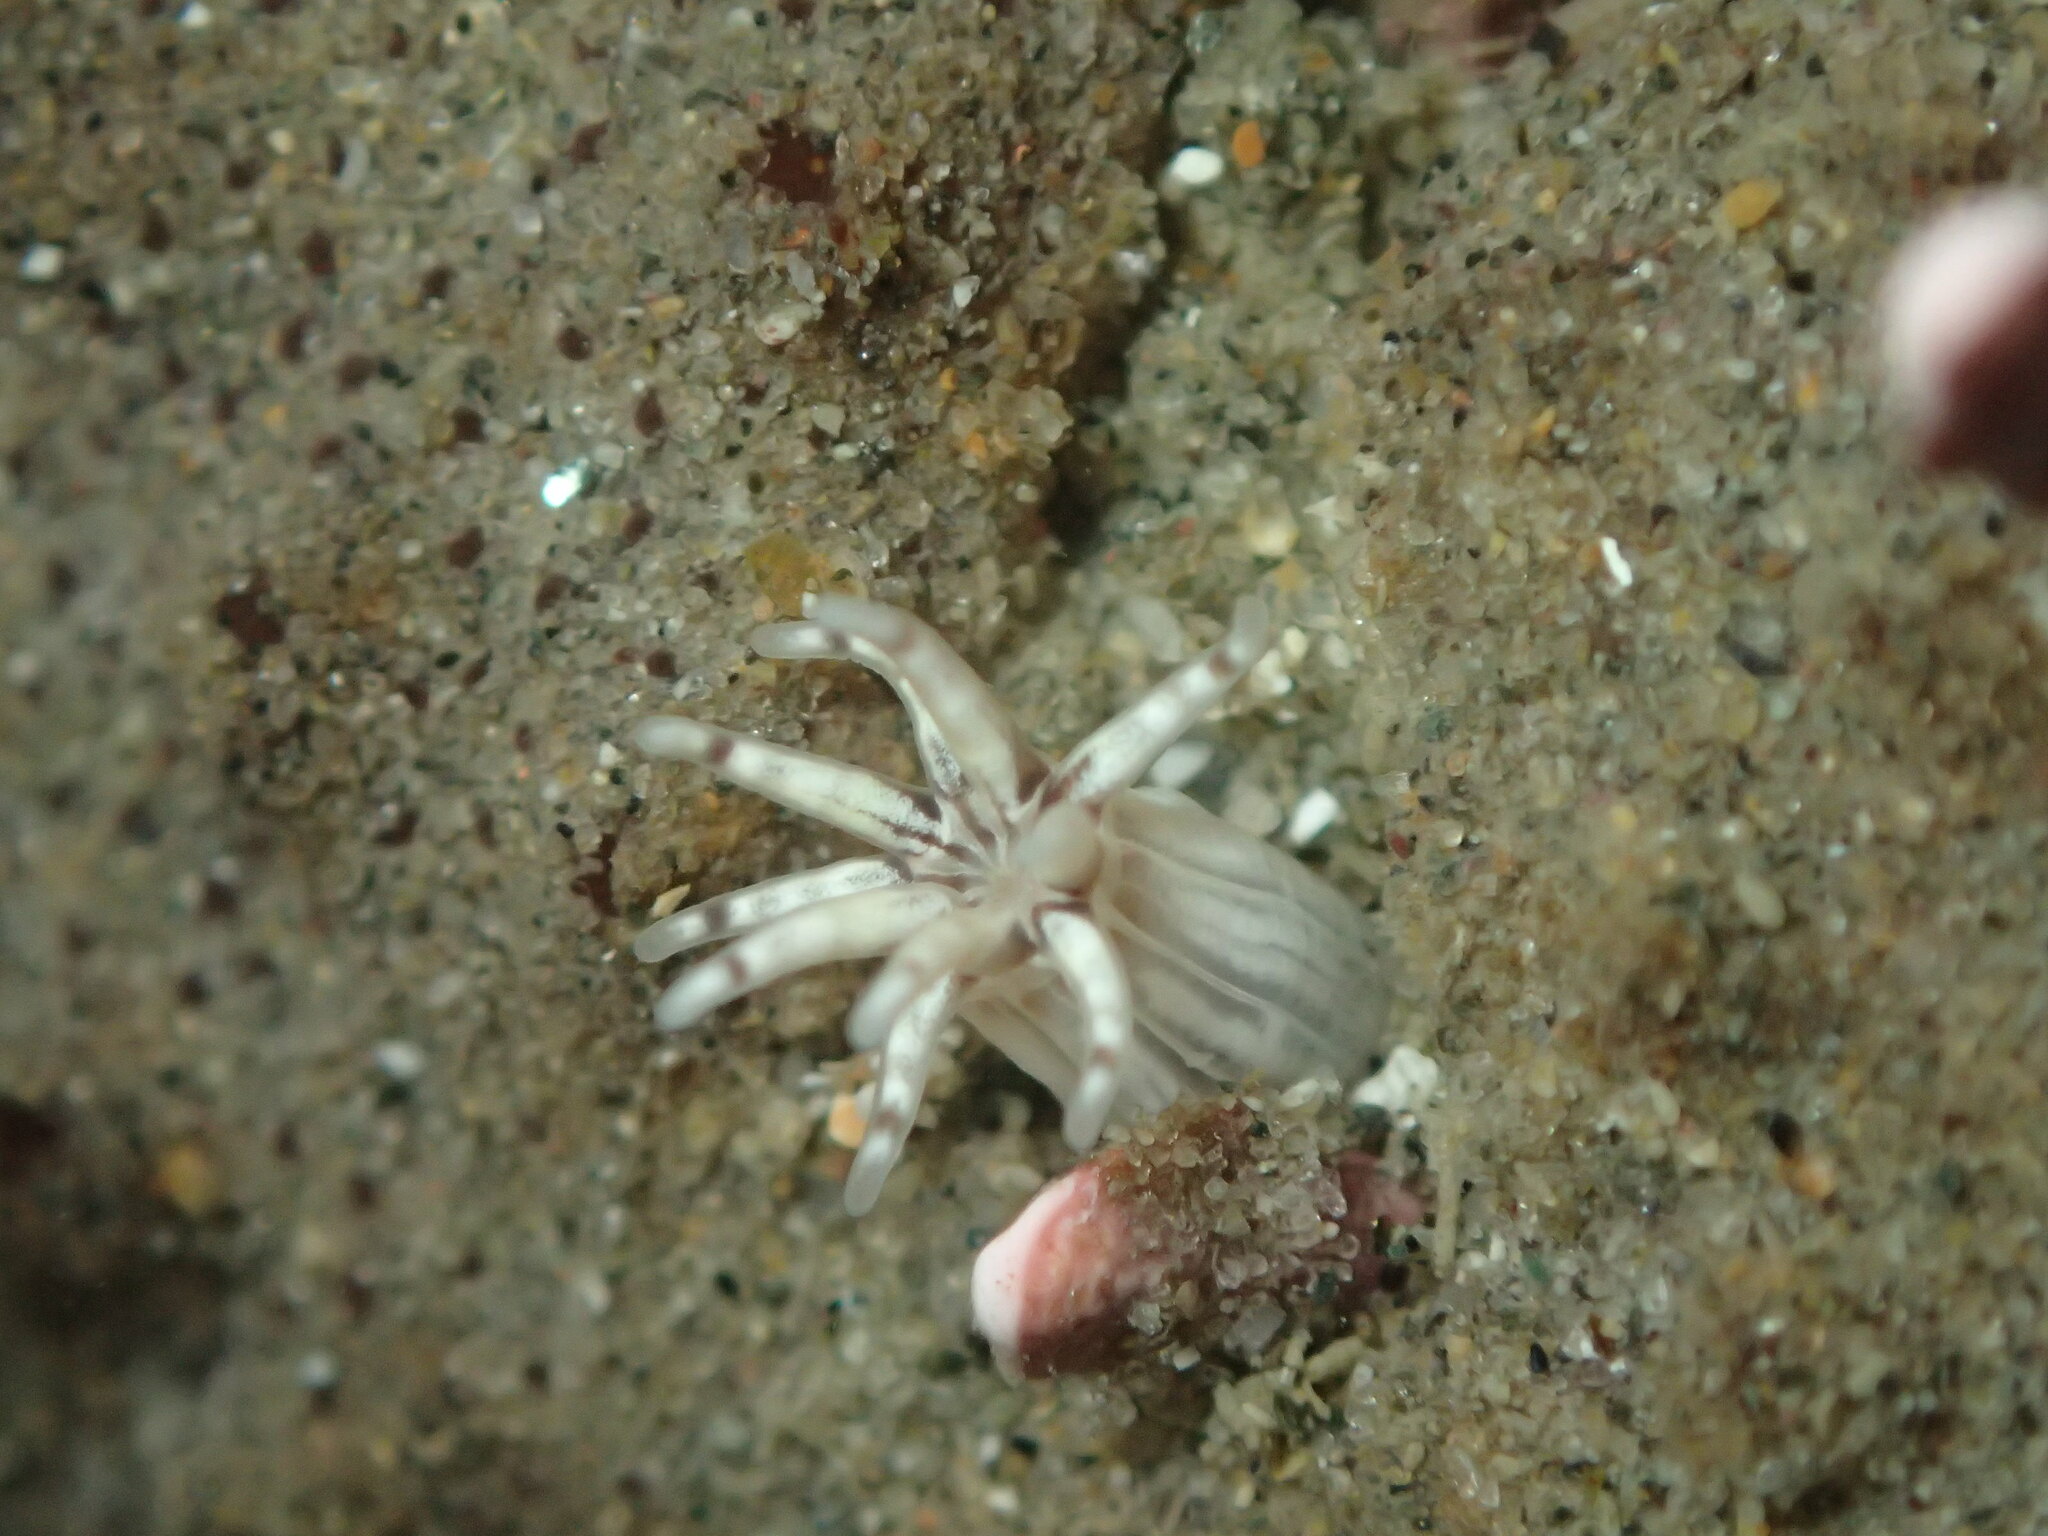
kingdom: Animalia
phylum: Cnidaria
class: Anthozoa
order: Actiniaria
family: Halcampidae
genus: Halcampa
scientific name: Halcampa decemtentaculata
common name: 10-tentacle burrowing anemone
